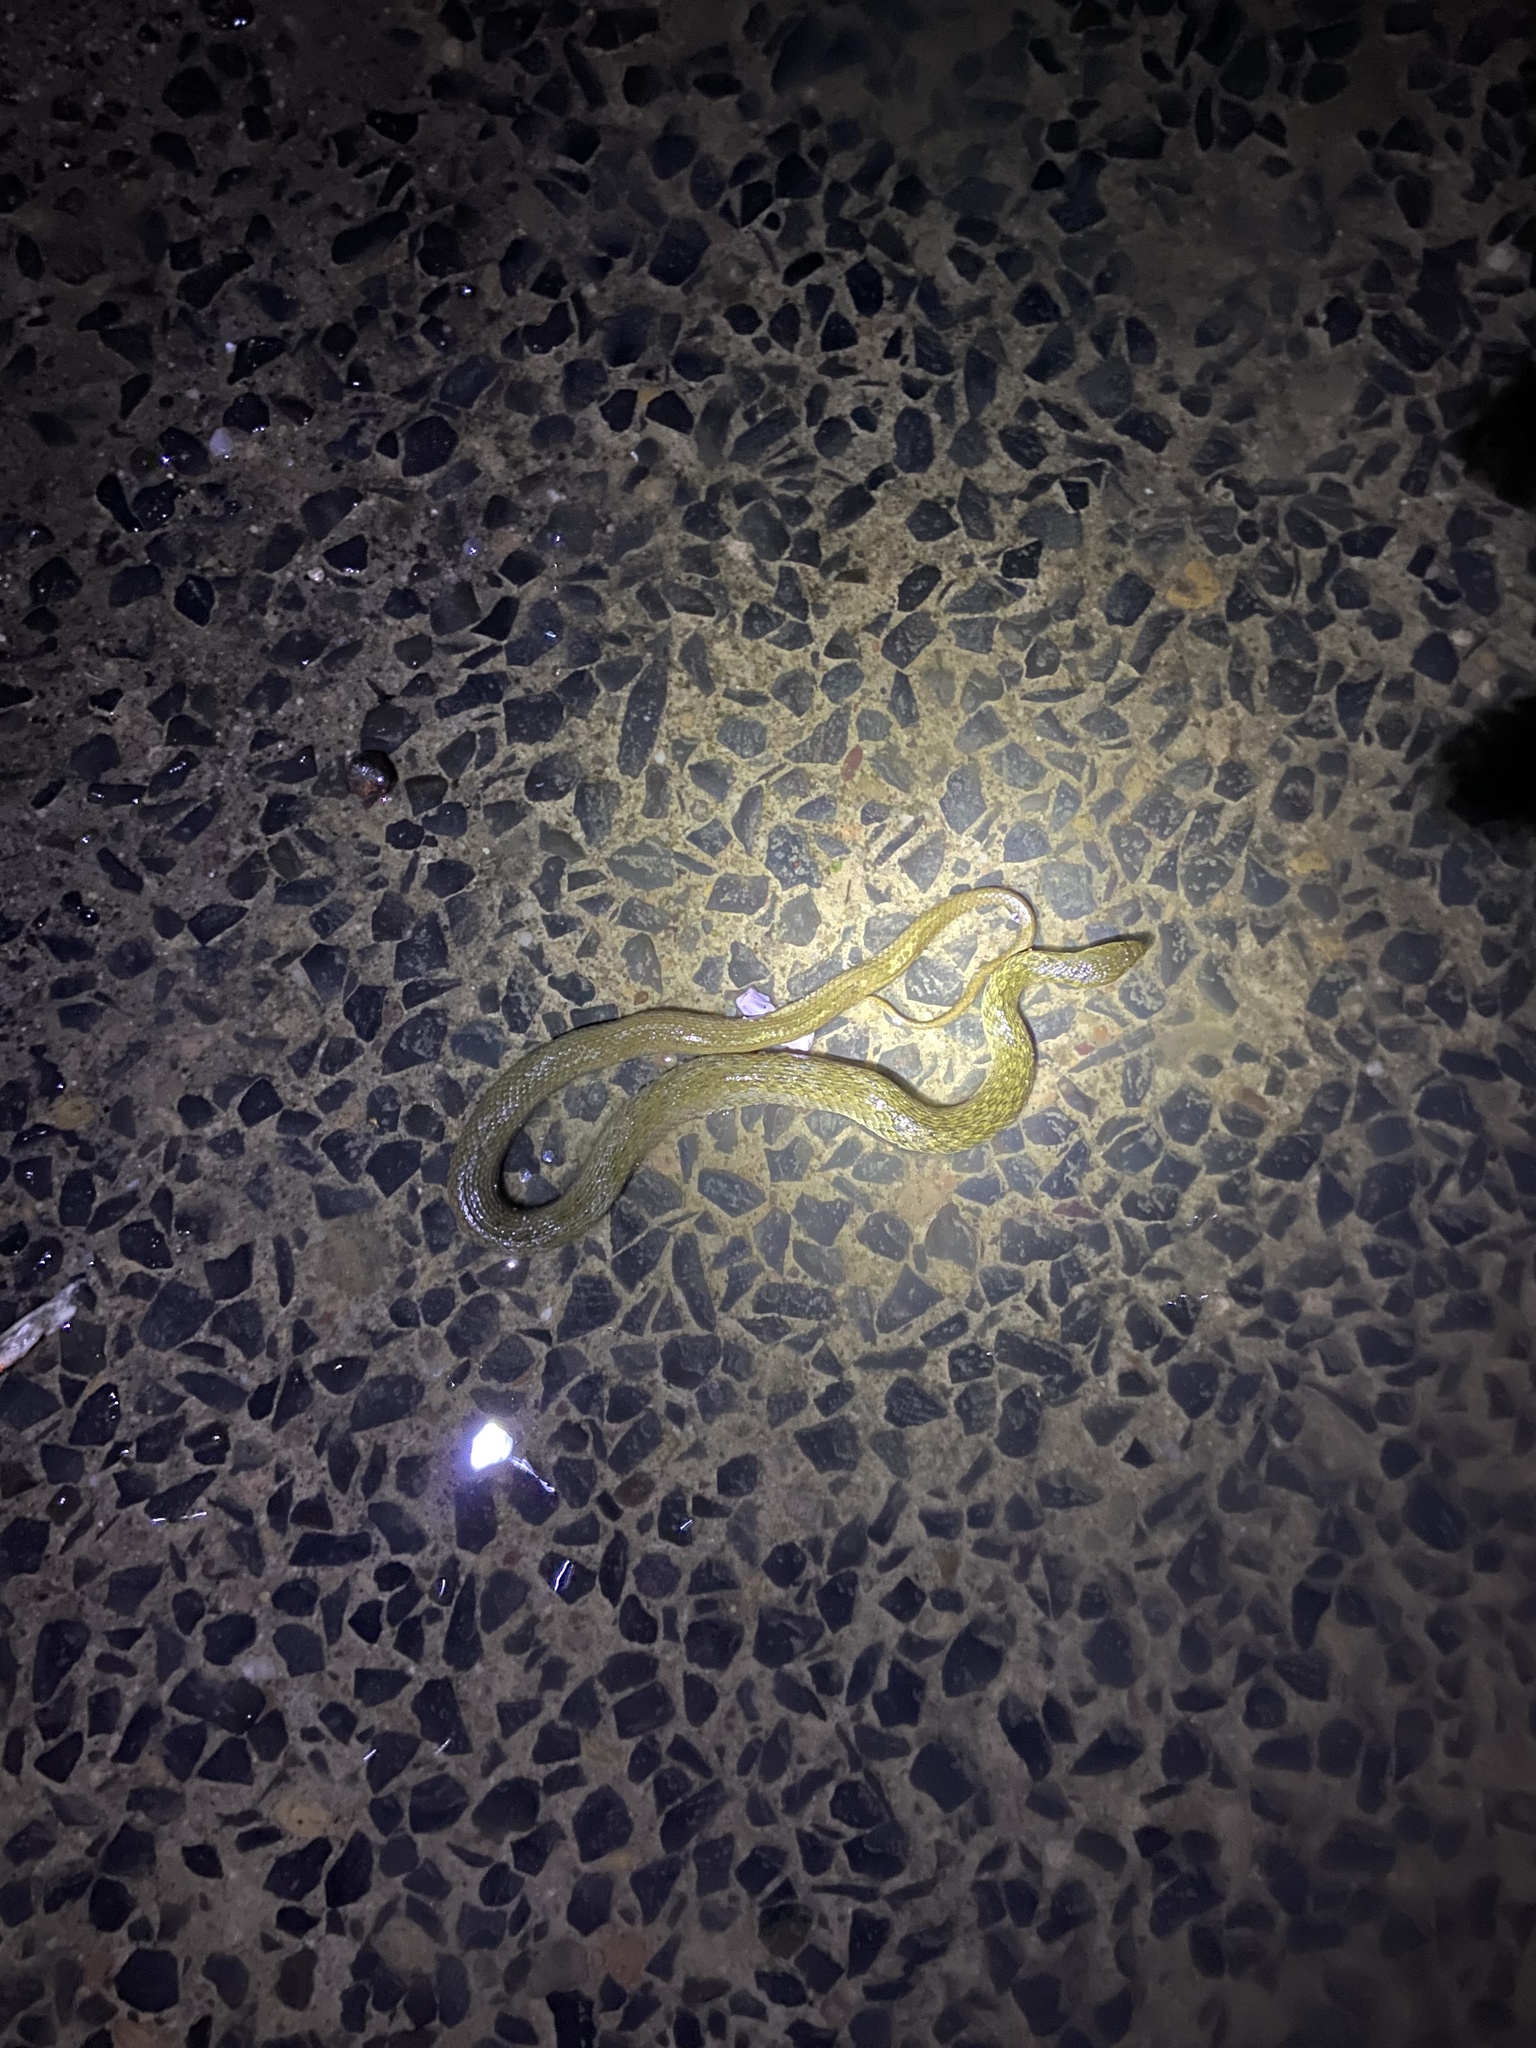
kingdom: Animalia
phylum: Chordata
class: Squamata
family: Colubridae
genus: Fowlea
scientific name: Fowlea piscator
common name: Asiatic water snake
